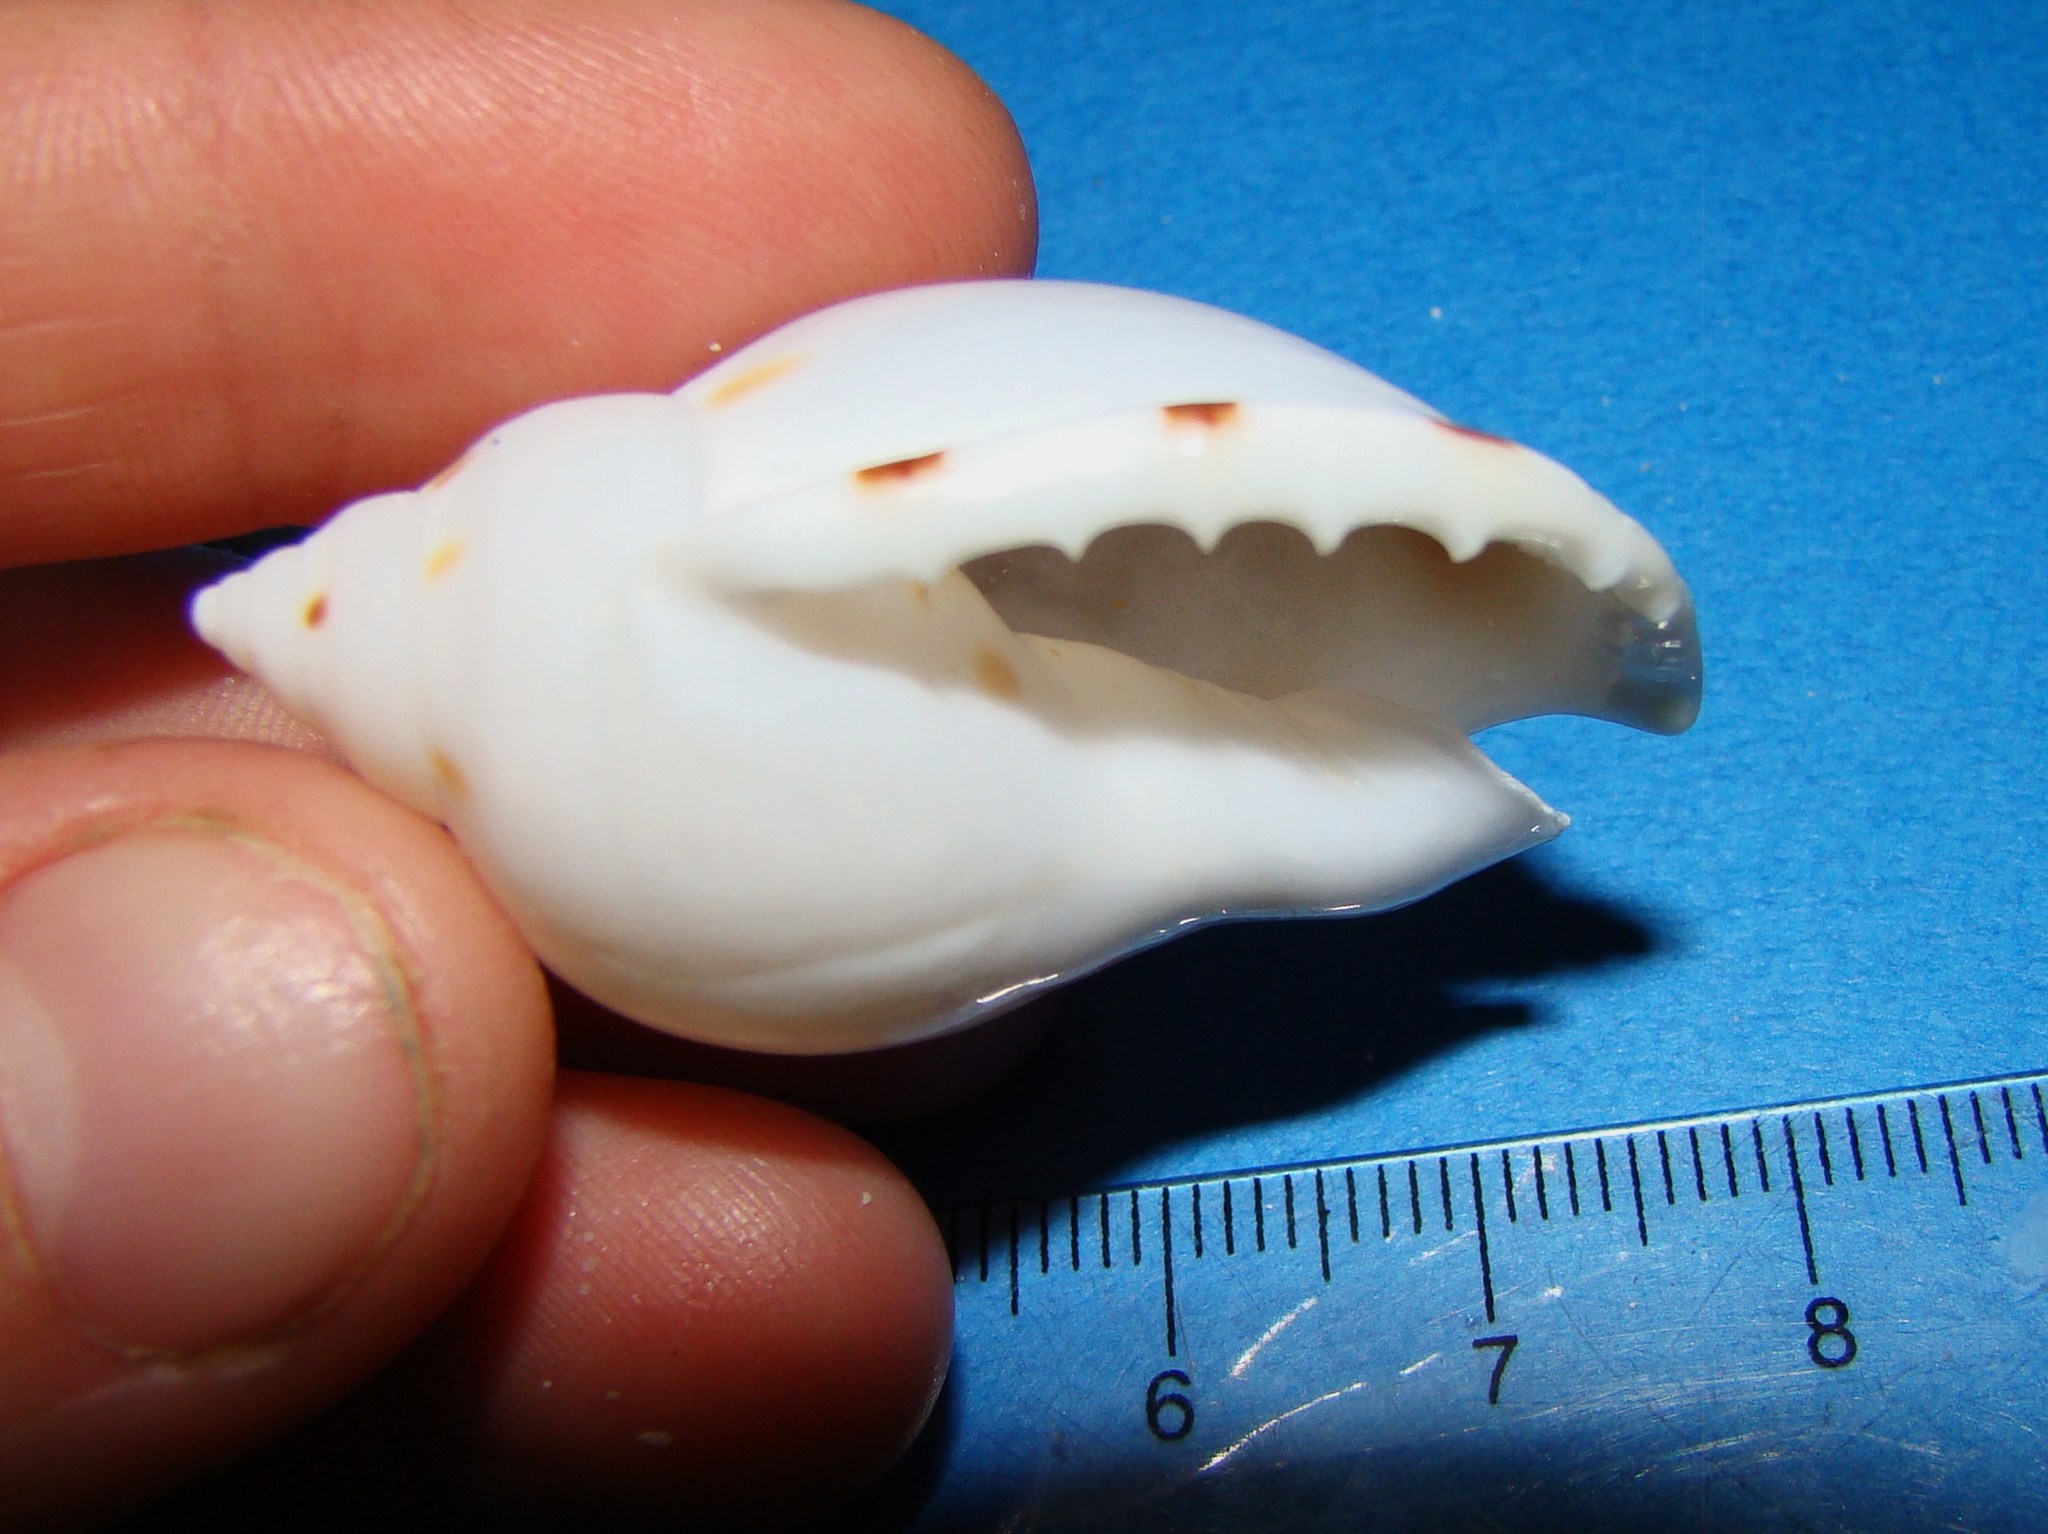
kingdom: Animalia
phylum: Mollusca
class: Gastropoda
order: Littorinimorpha
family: Cassidae
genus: Casmaria
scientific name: Casmaria ponderosa
